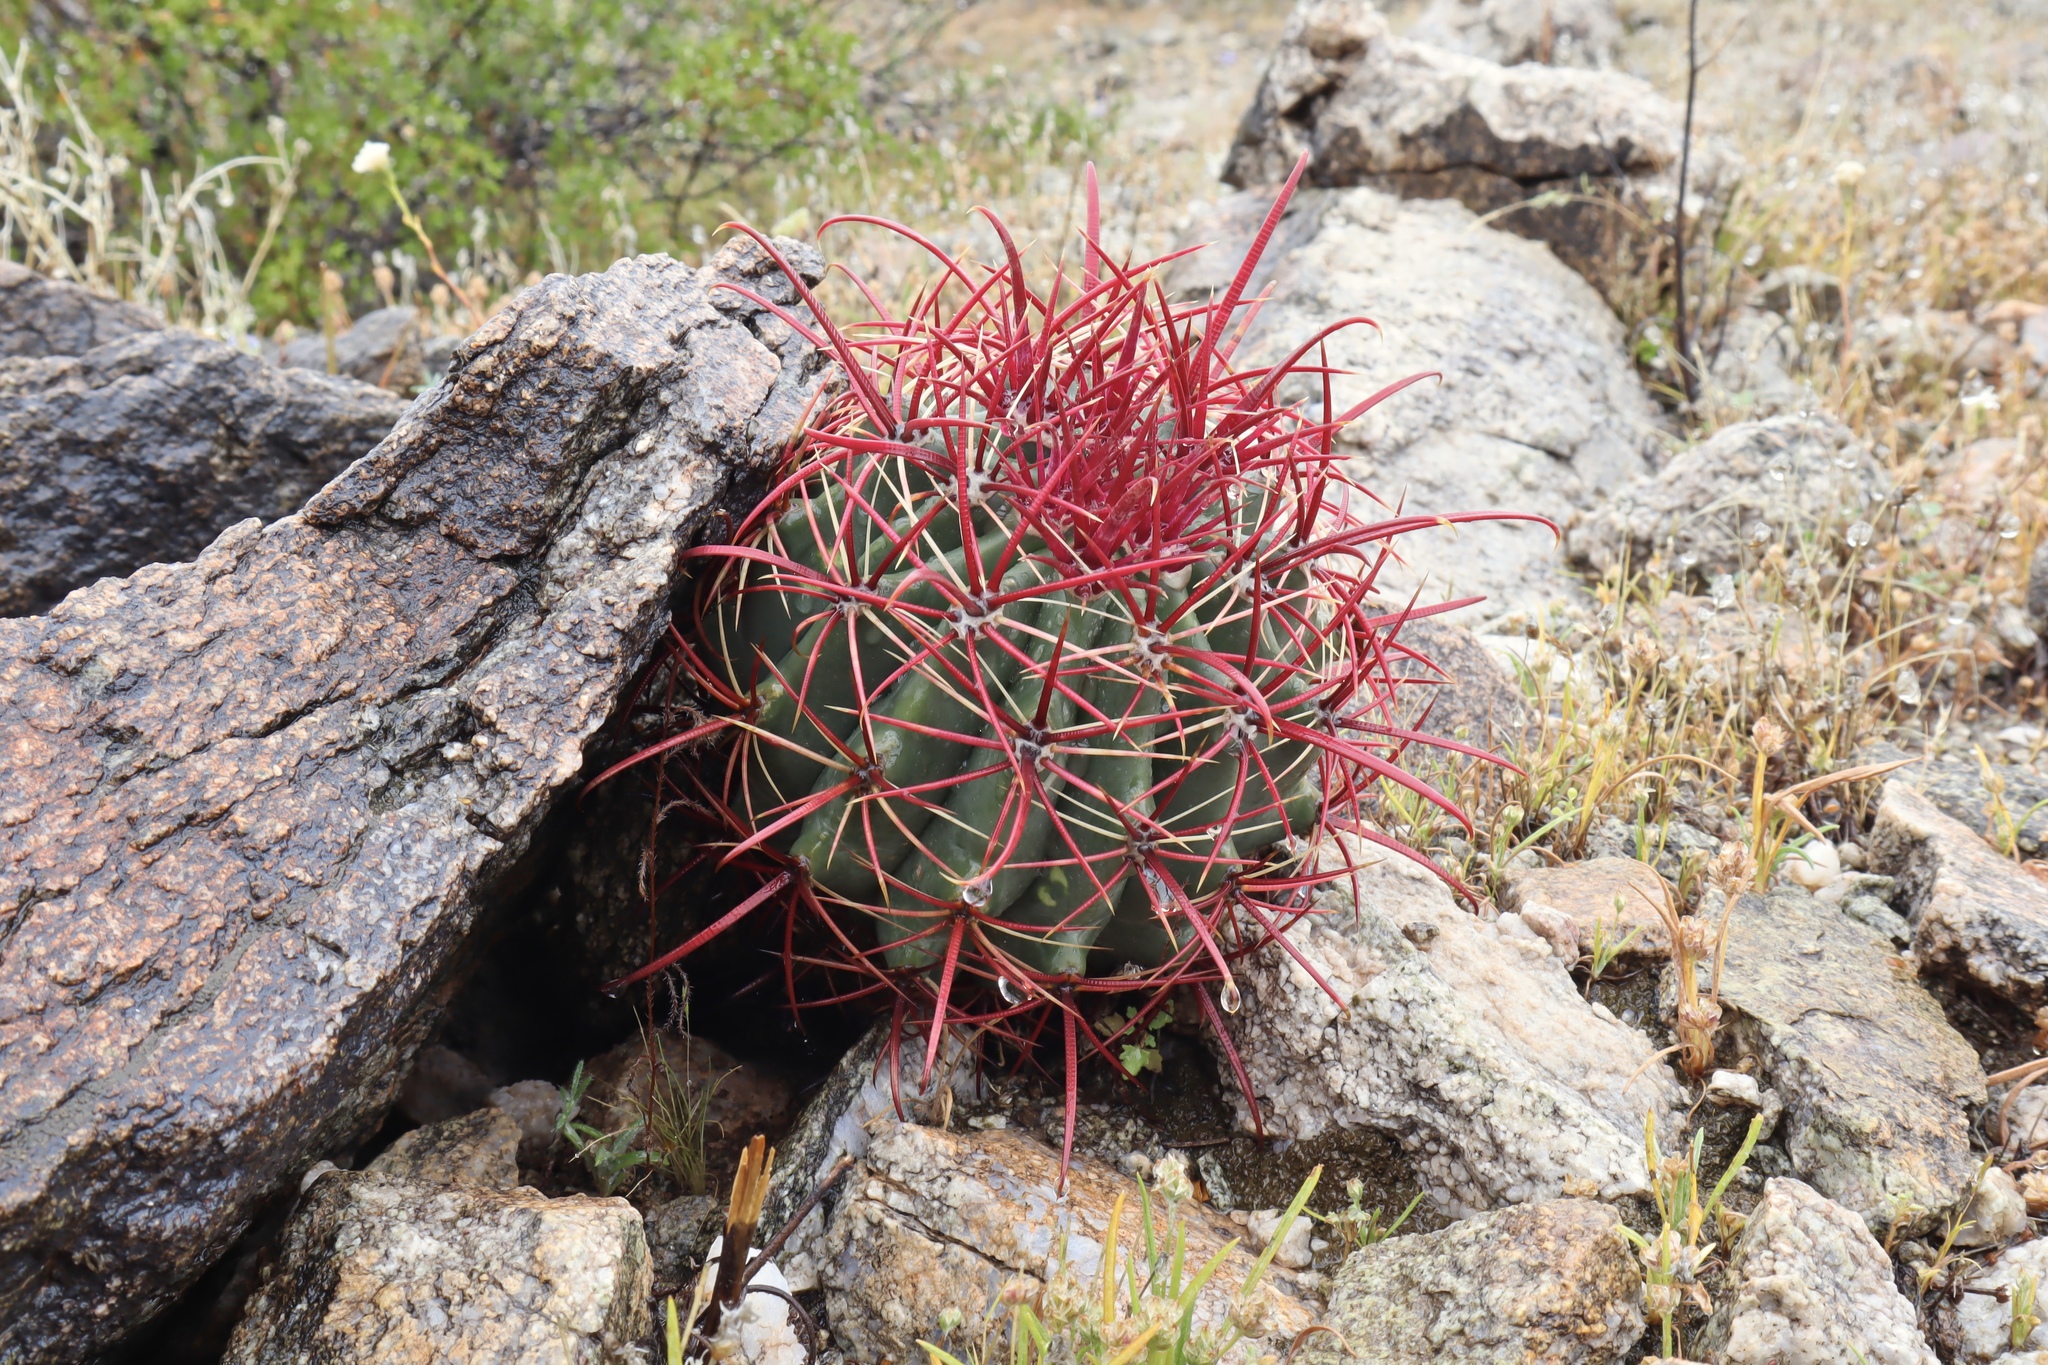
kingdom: Plantae
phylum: Tracheophyta
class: Magnoliopsida
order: Caryophyllales
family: Cactaceae
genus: Ferocactus
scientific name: Ferocactus cylindraceus
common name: California barrel cactus
